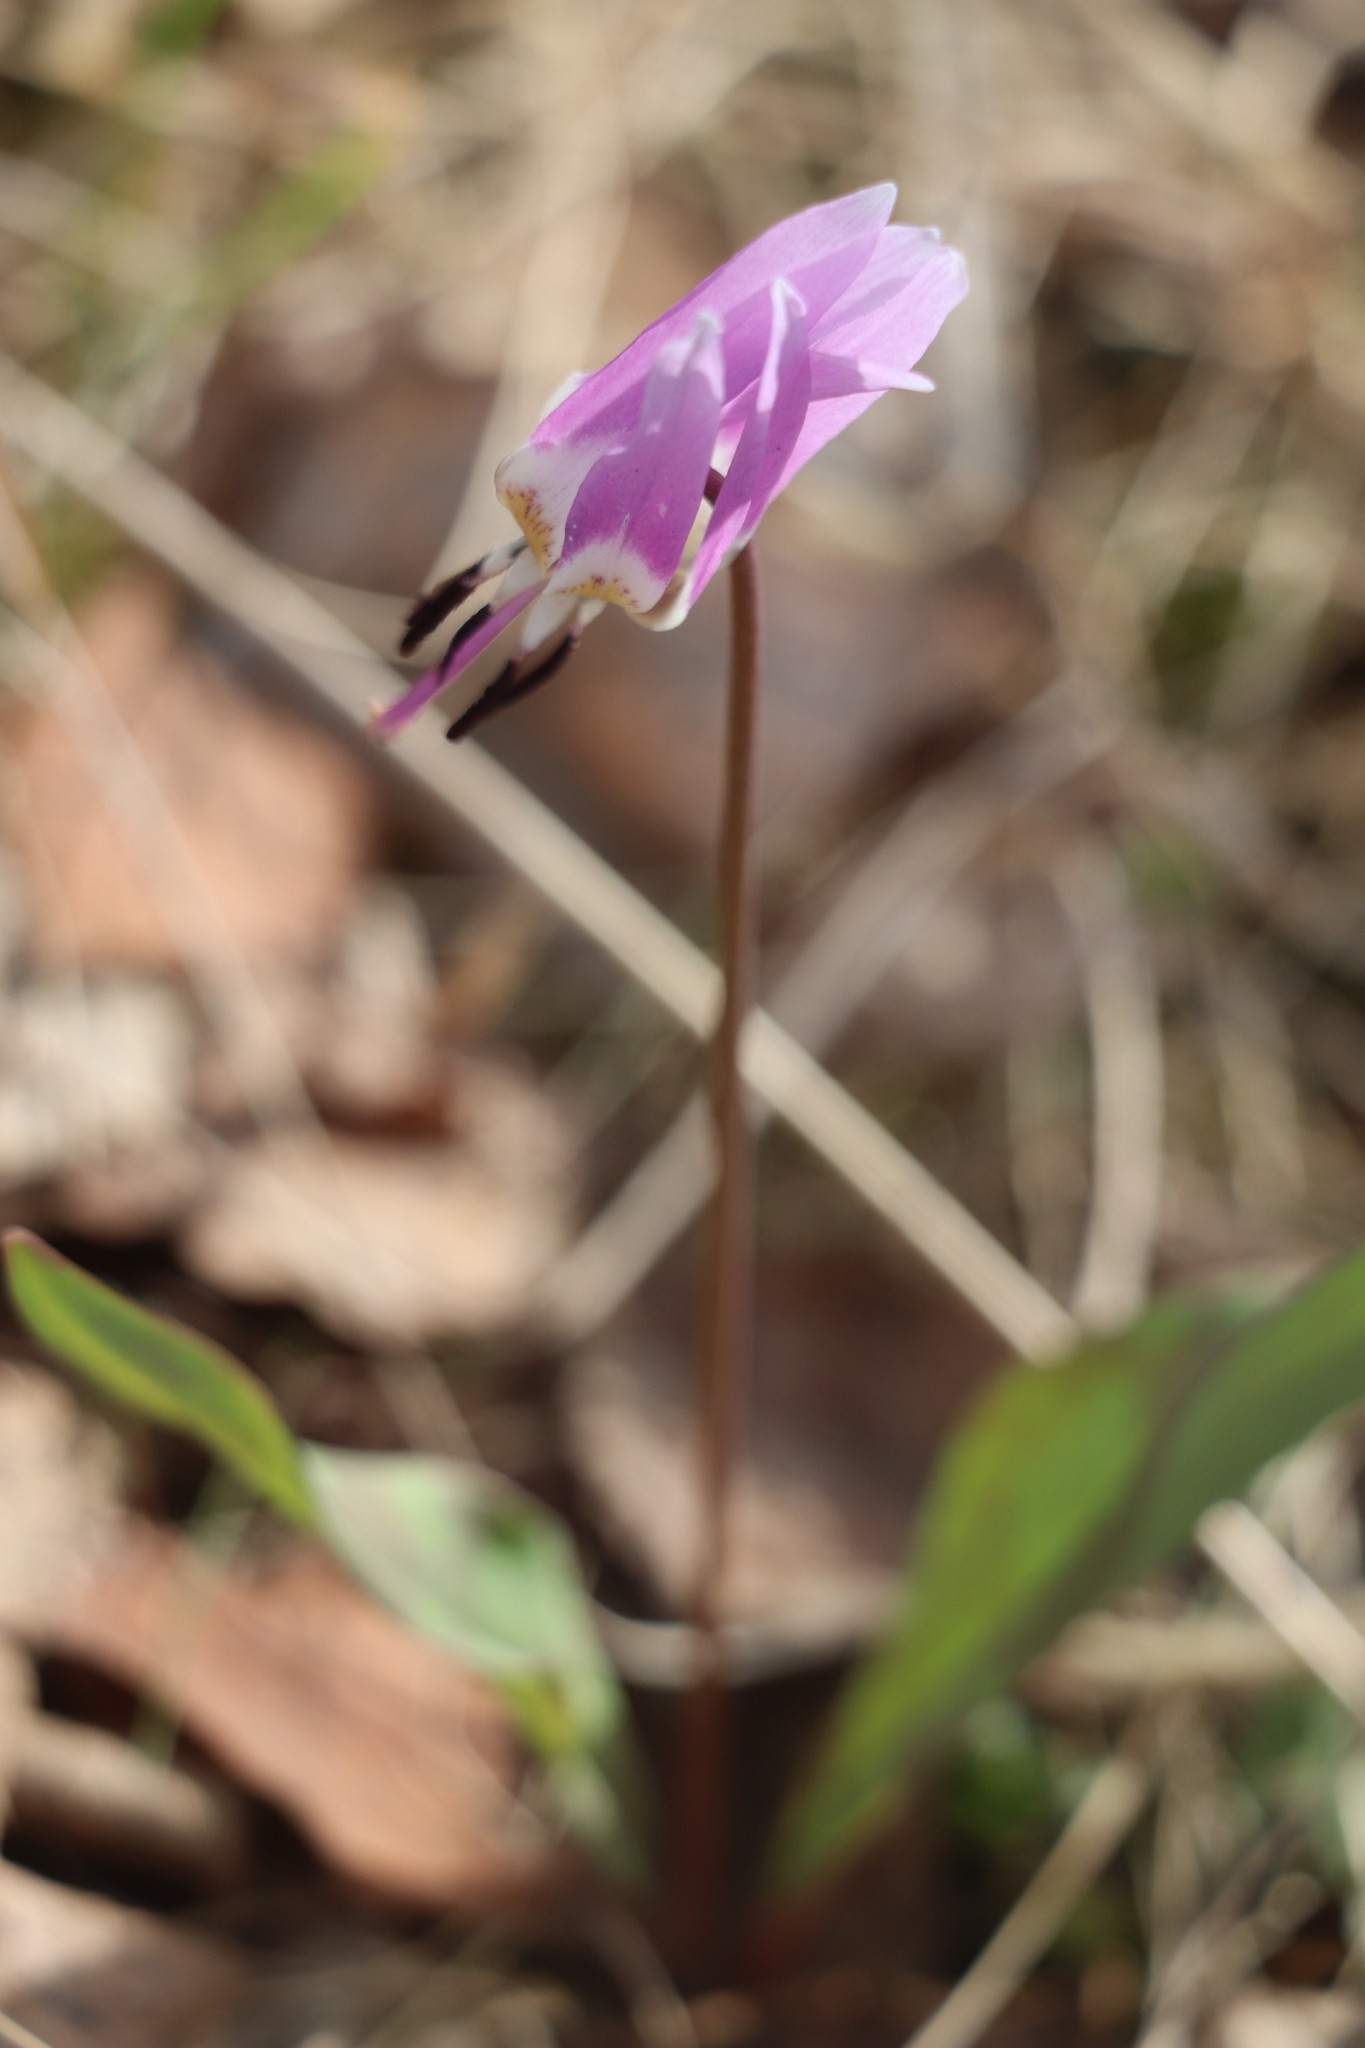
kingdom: Plantae
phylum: Tracheophyta
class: Liliopsida
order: Liliales
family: Liliaceae
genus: Erythronium
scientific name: Erythronium sulevii
